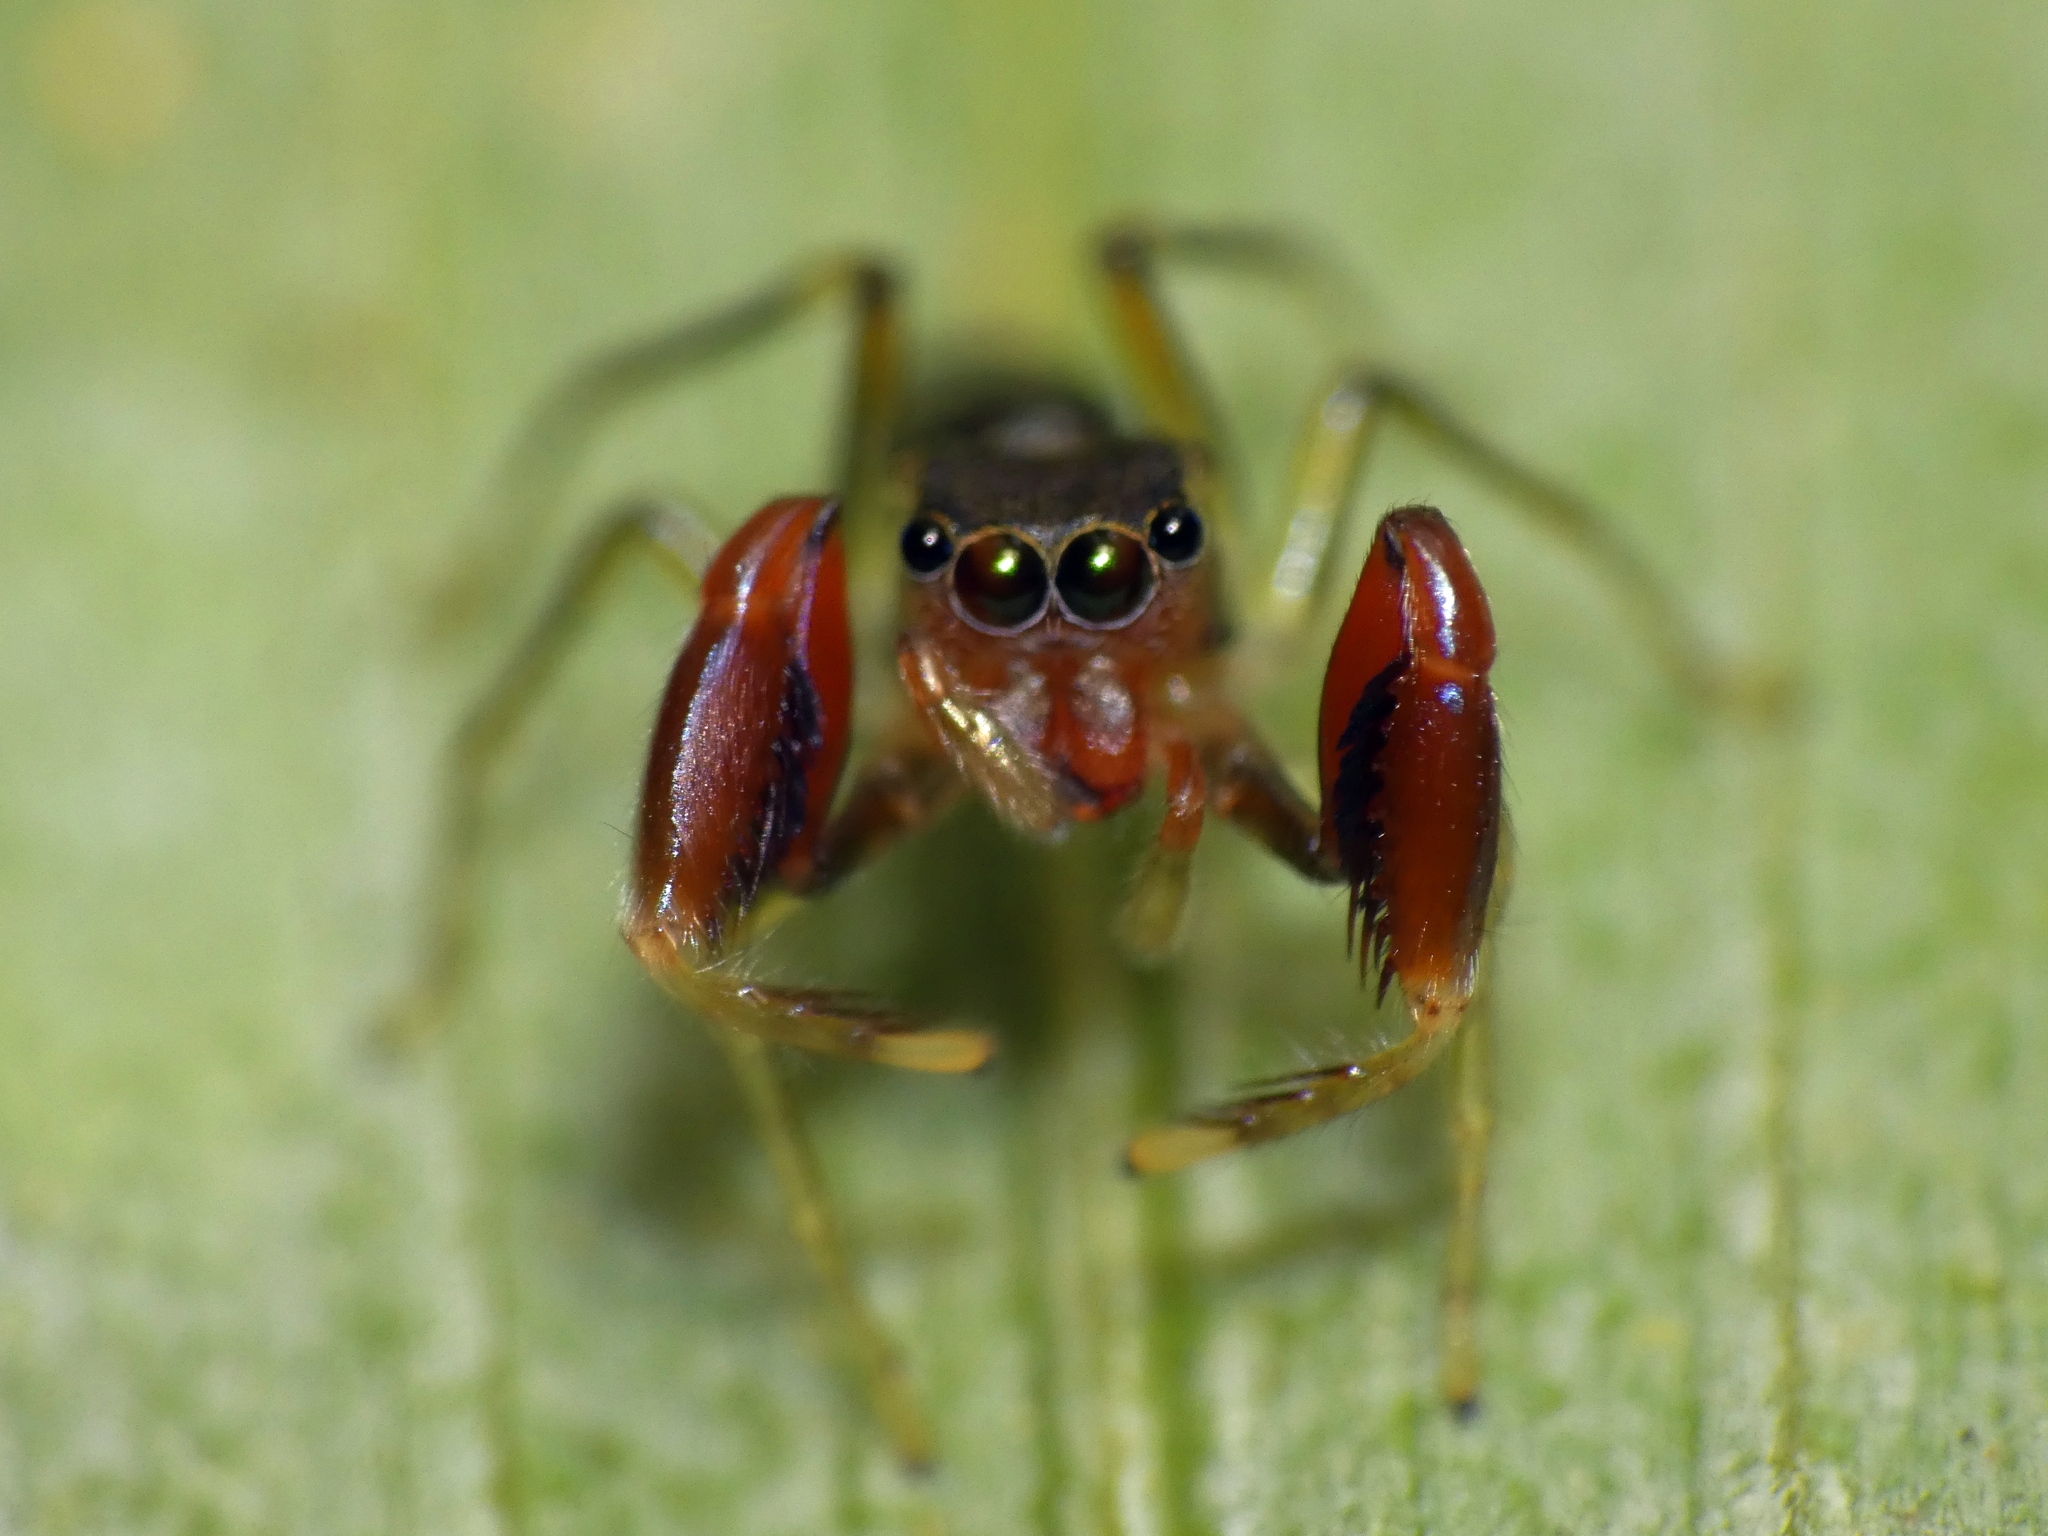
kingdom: Animalia
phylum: Arthropoda
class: Arachnida
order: Araneae
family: Salticidae
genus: Ohilimia
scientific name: Ohilimia scutellata
